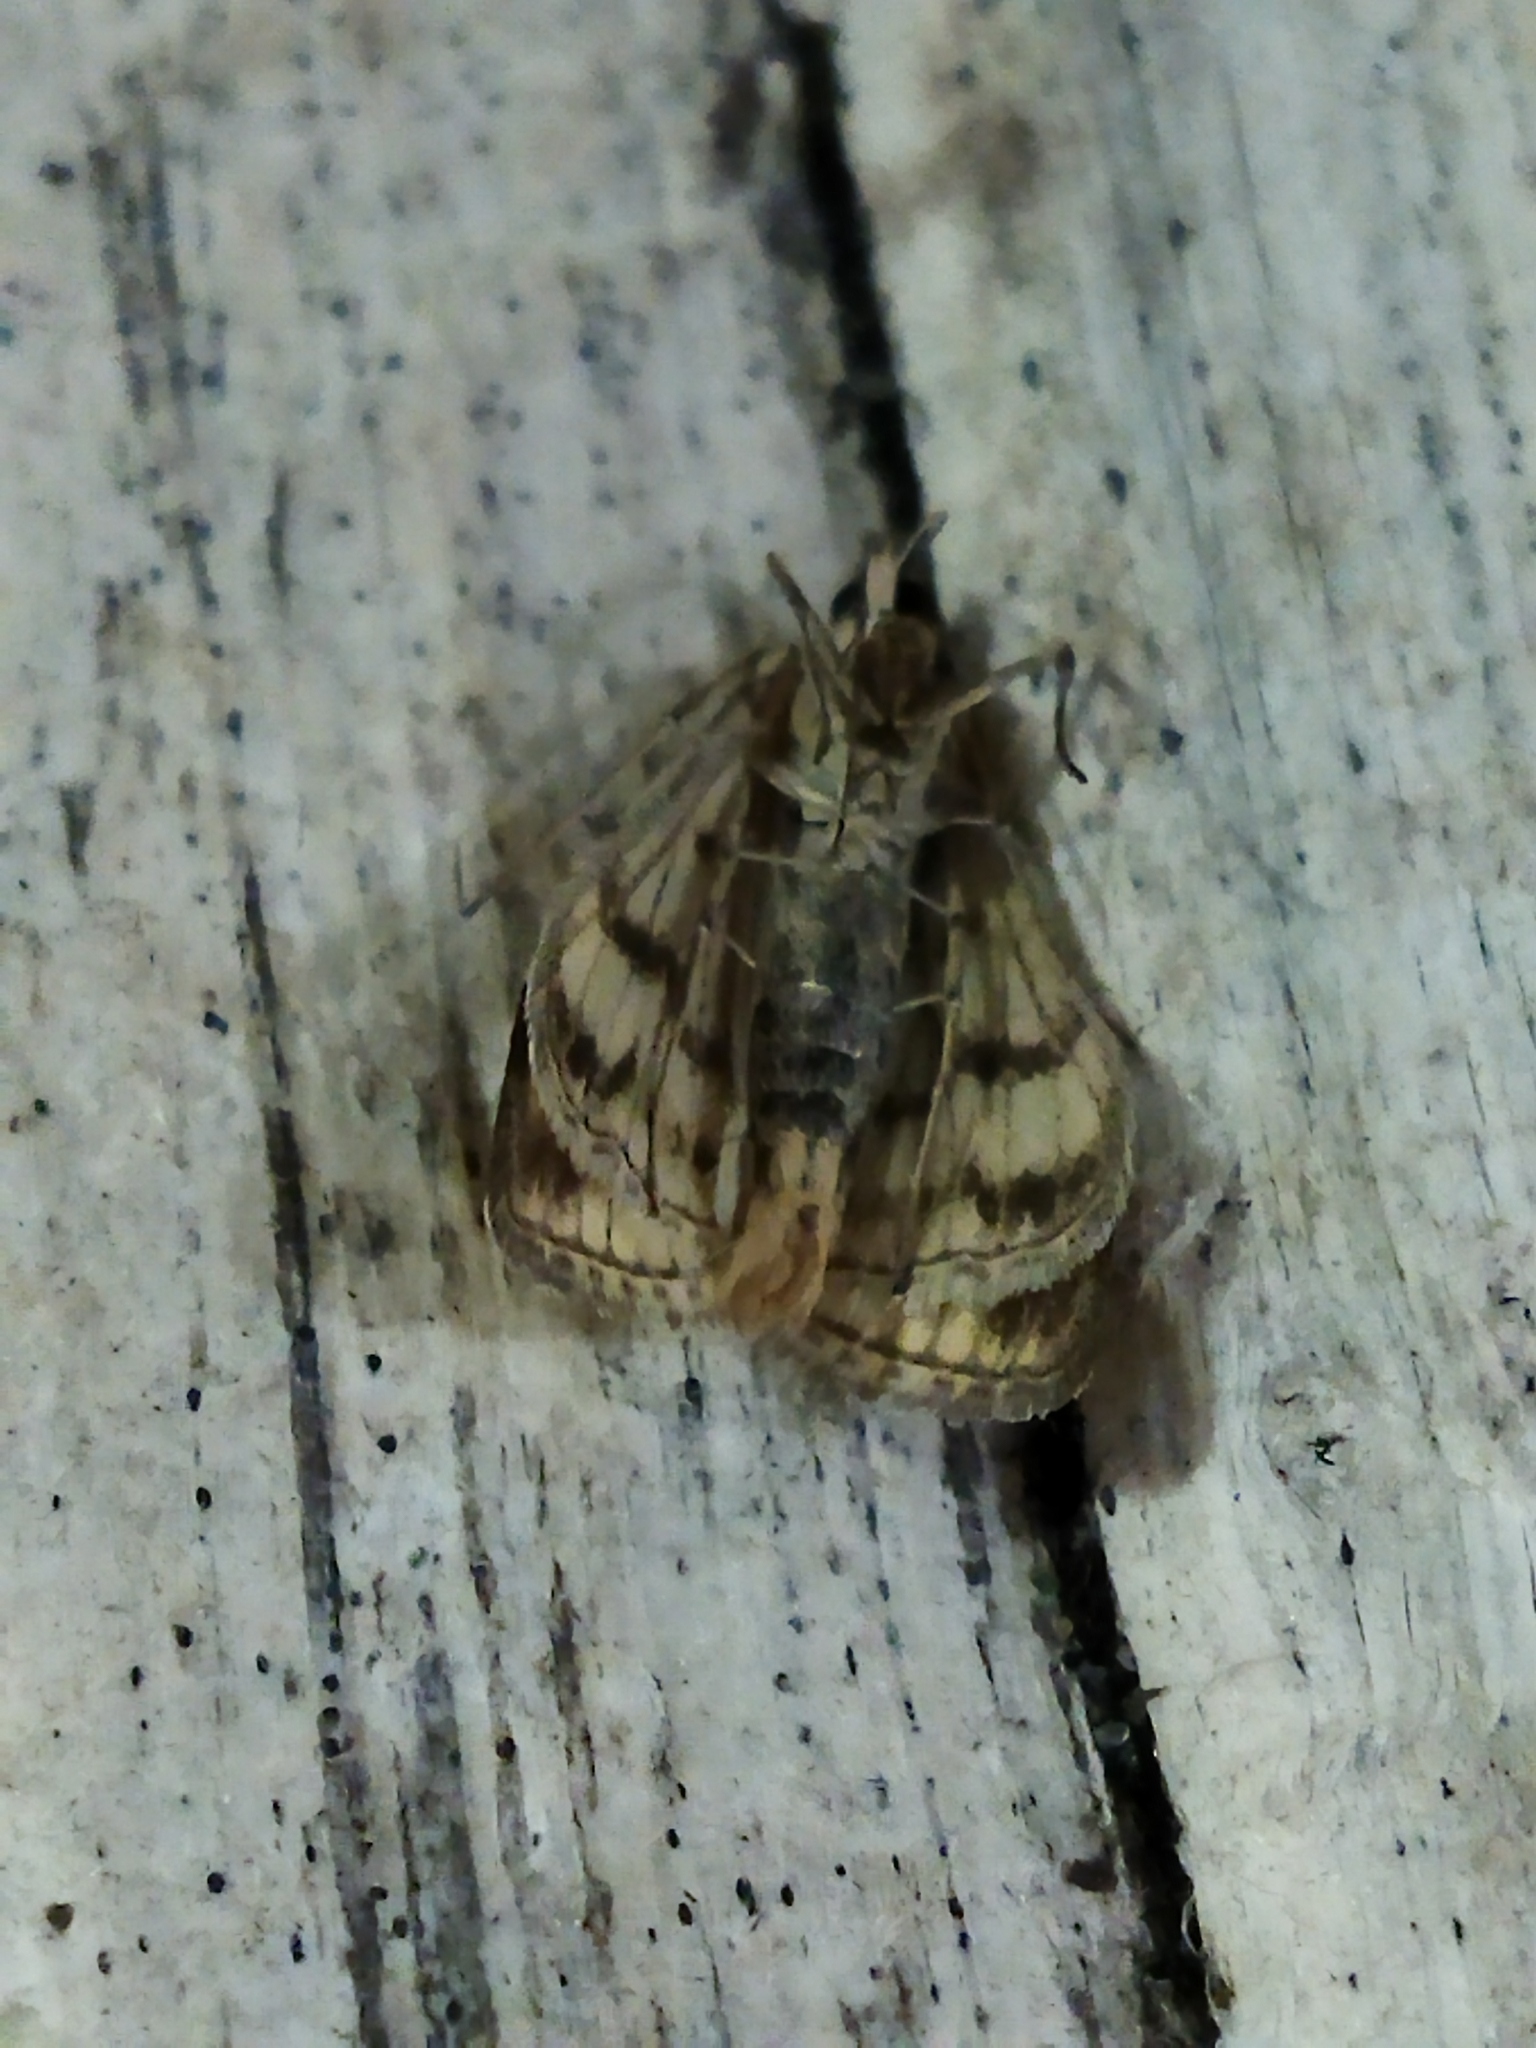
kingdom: Animalia
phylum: Arthropoda
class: Insecta
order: Lepidoptera
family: Crambidae
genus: Sitochroa
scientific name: Sitochroa verticalis
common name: Lesser pearl
